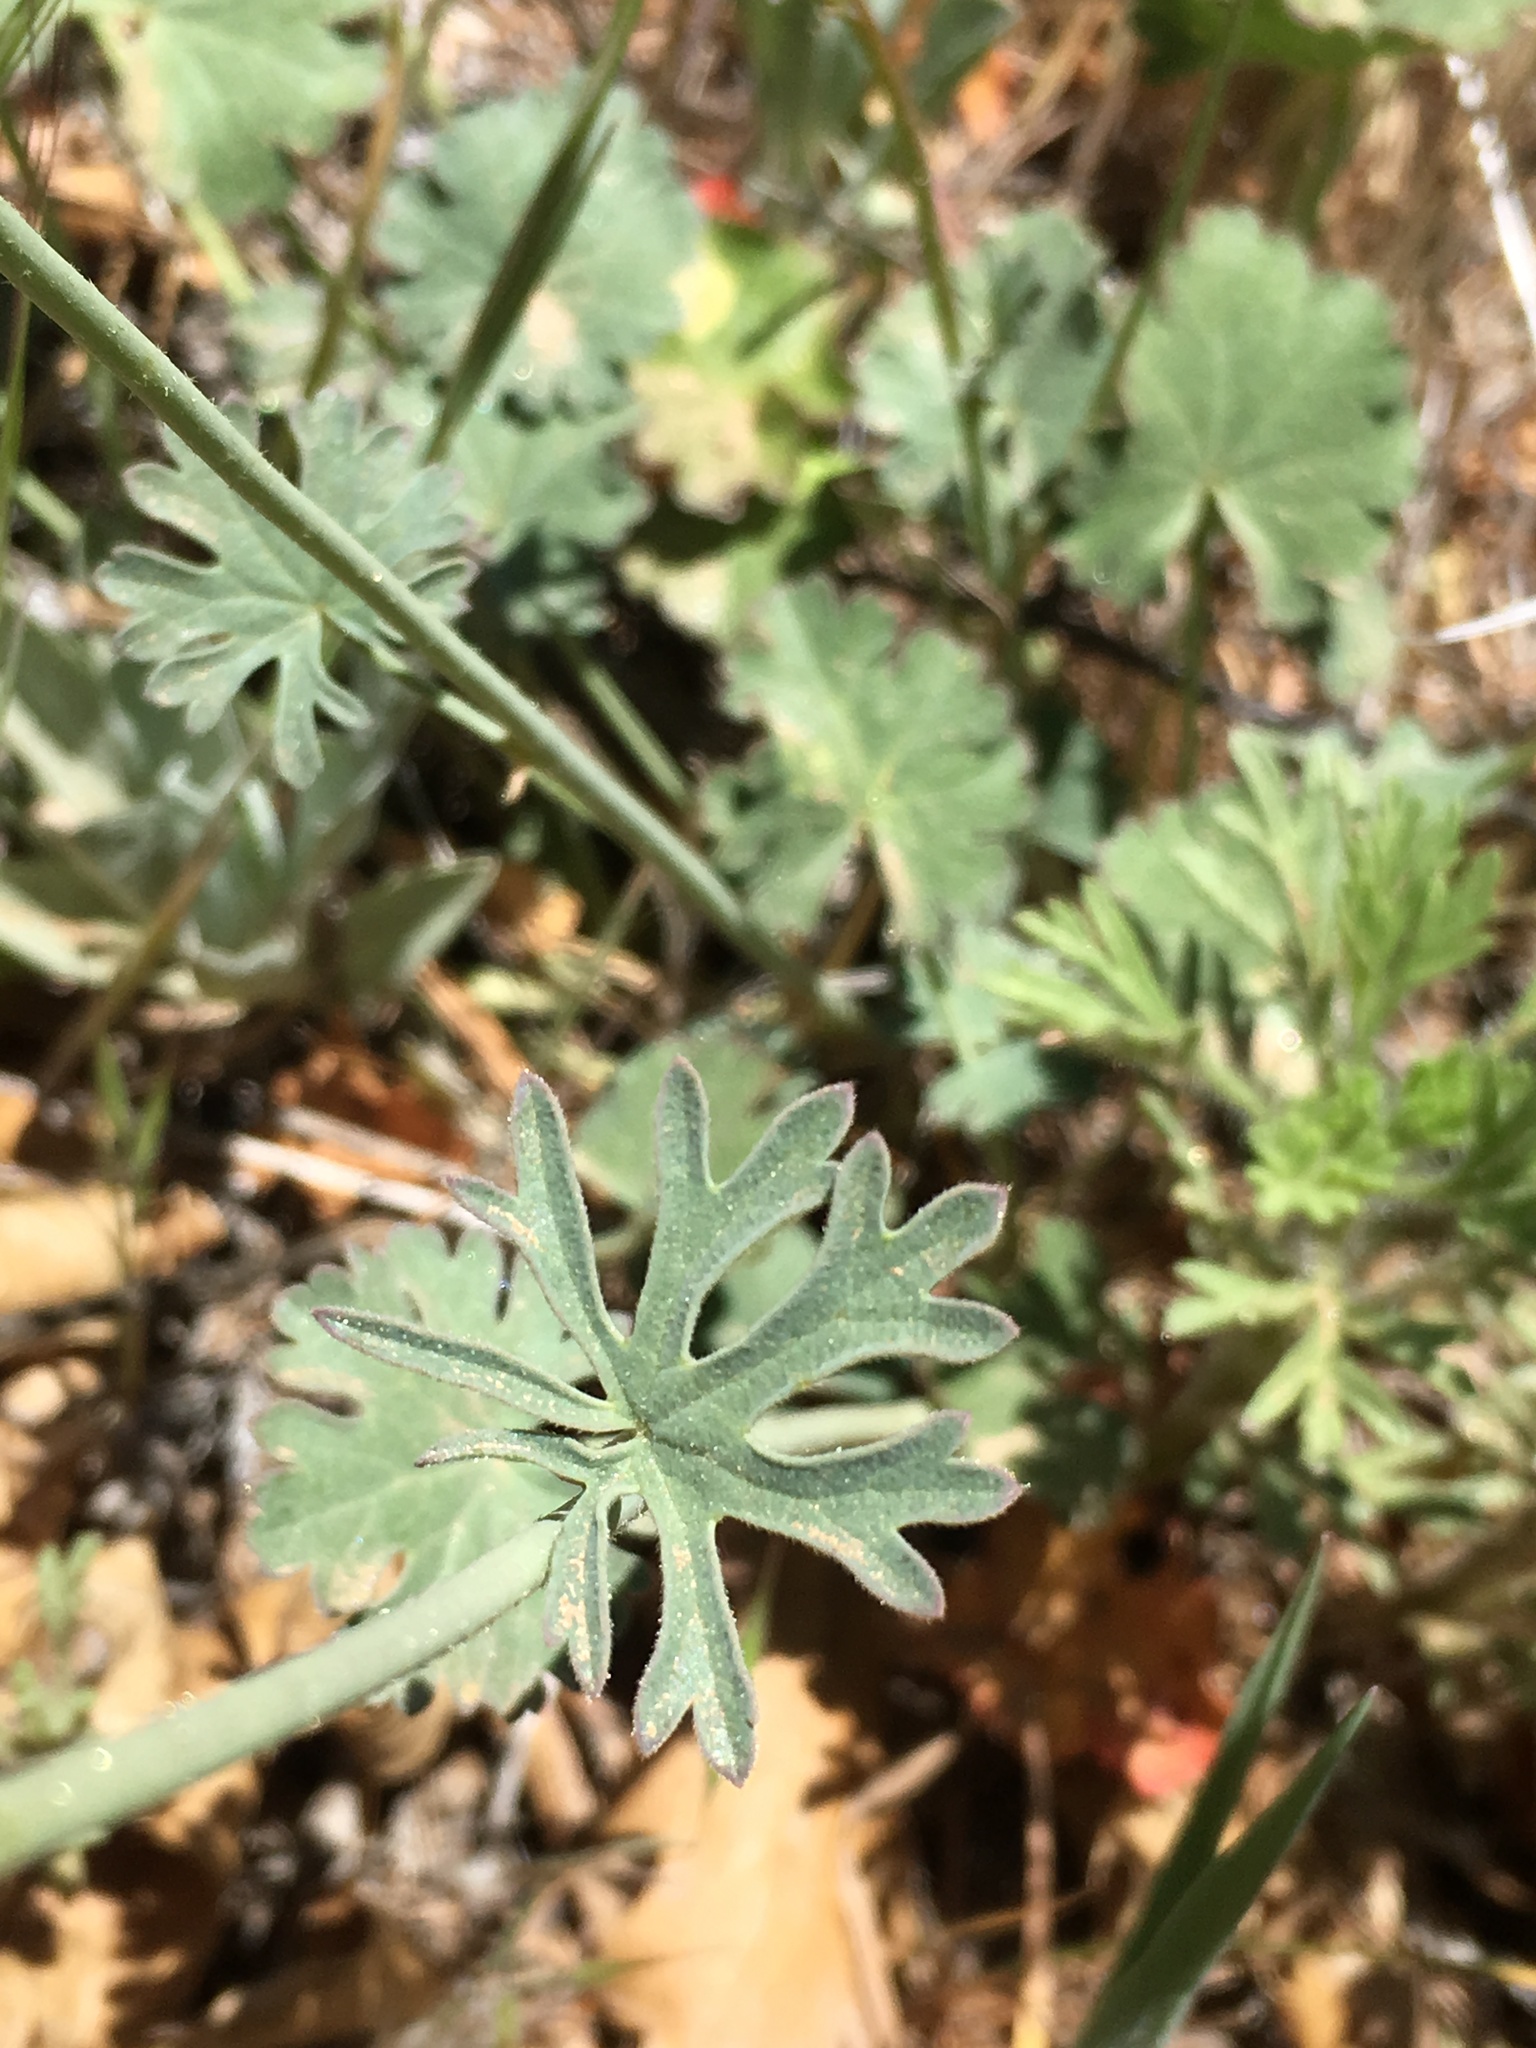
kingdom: Plantae
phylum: Tracheophyta
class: Magnoliopsida
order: Malvales
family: Malvaceae
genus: Sidalcea
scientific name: Sidalcea sparsifolia
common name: Southern checkerbloom
